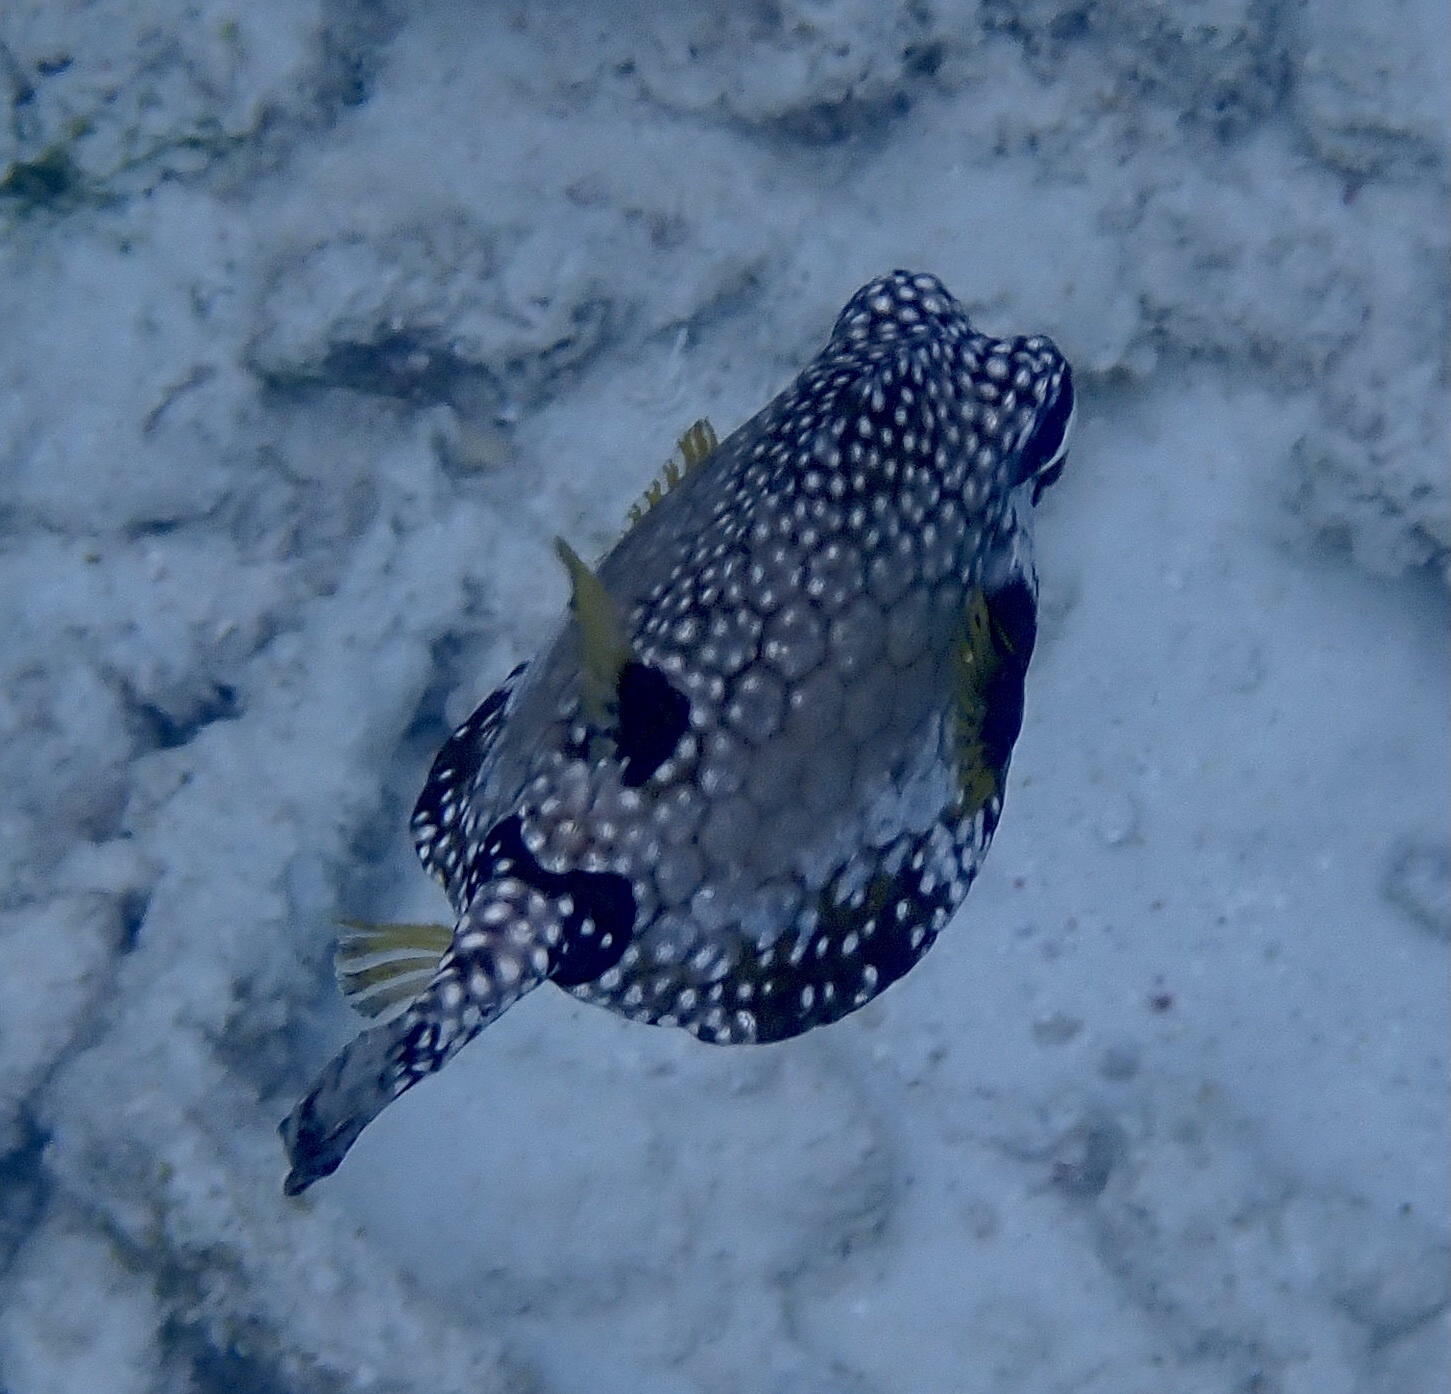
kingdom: Animalia
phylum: Chordata
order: Tetraodontiformes
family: Ostraciidae
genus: Lactophrys
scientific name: Lactophrys triqueter
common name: Smooth trunkfish
